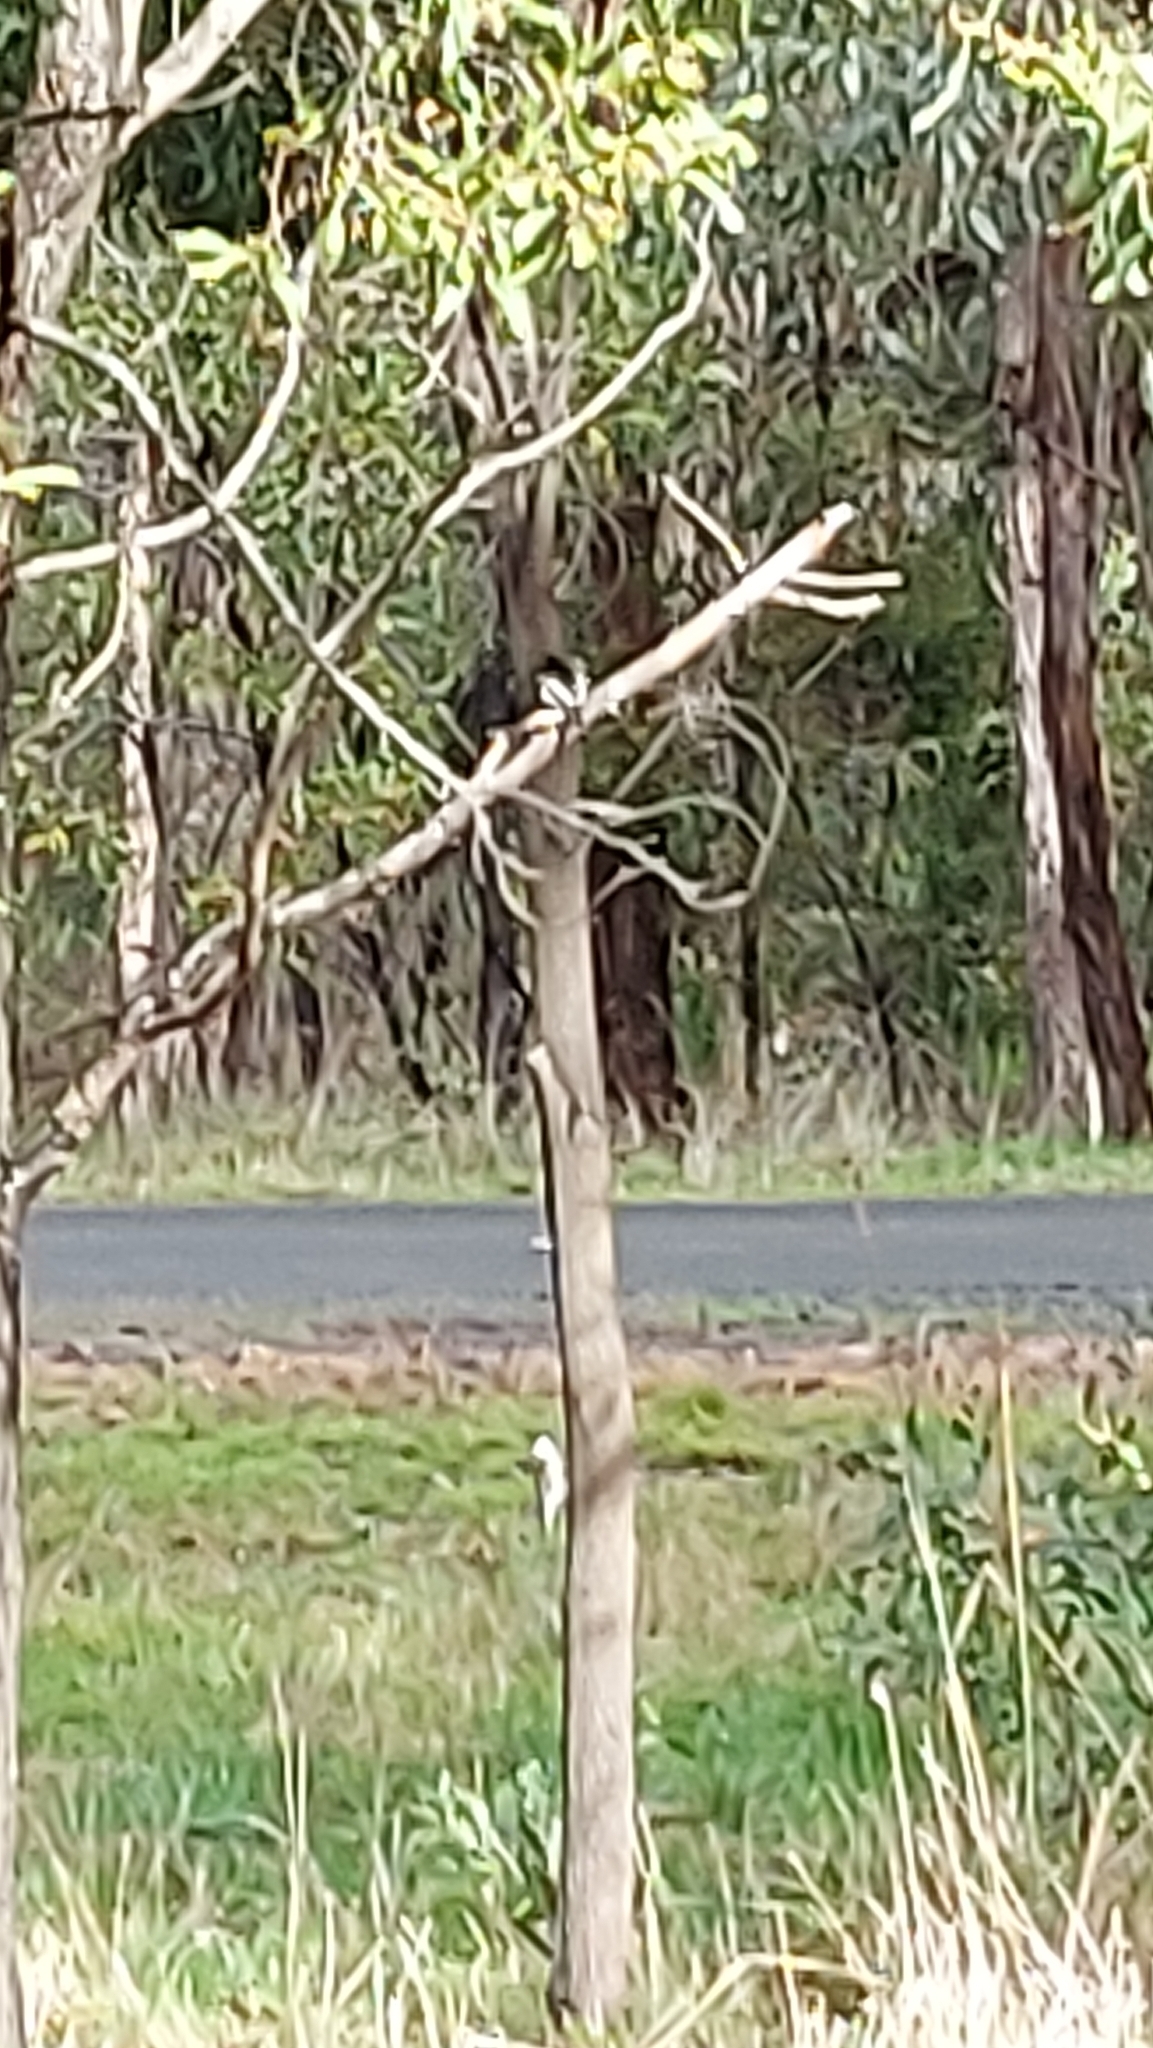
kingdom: Animalia
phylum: Chordata
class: Aves
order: Passeriformes
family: Petroicidae
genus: Petroica
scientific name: Petroica boodang
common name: Scarlet robin
